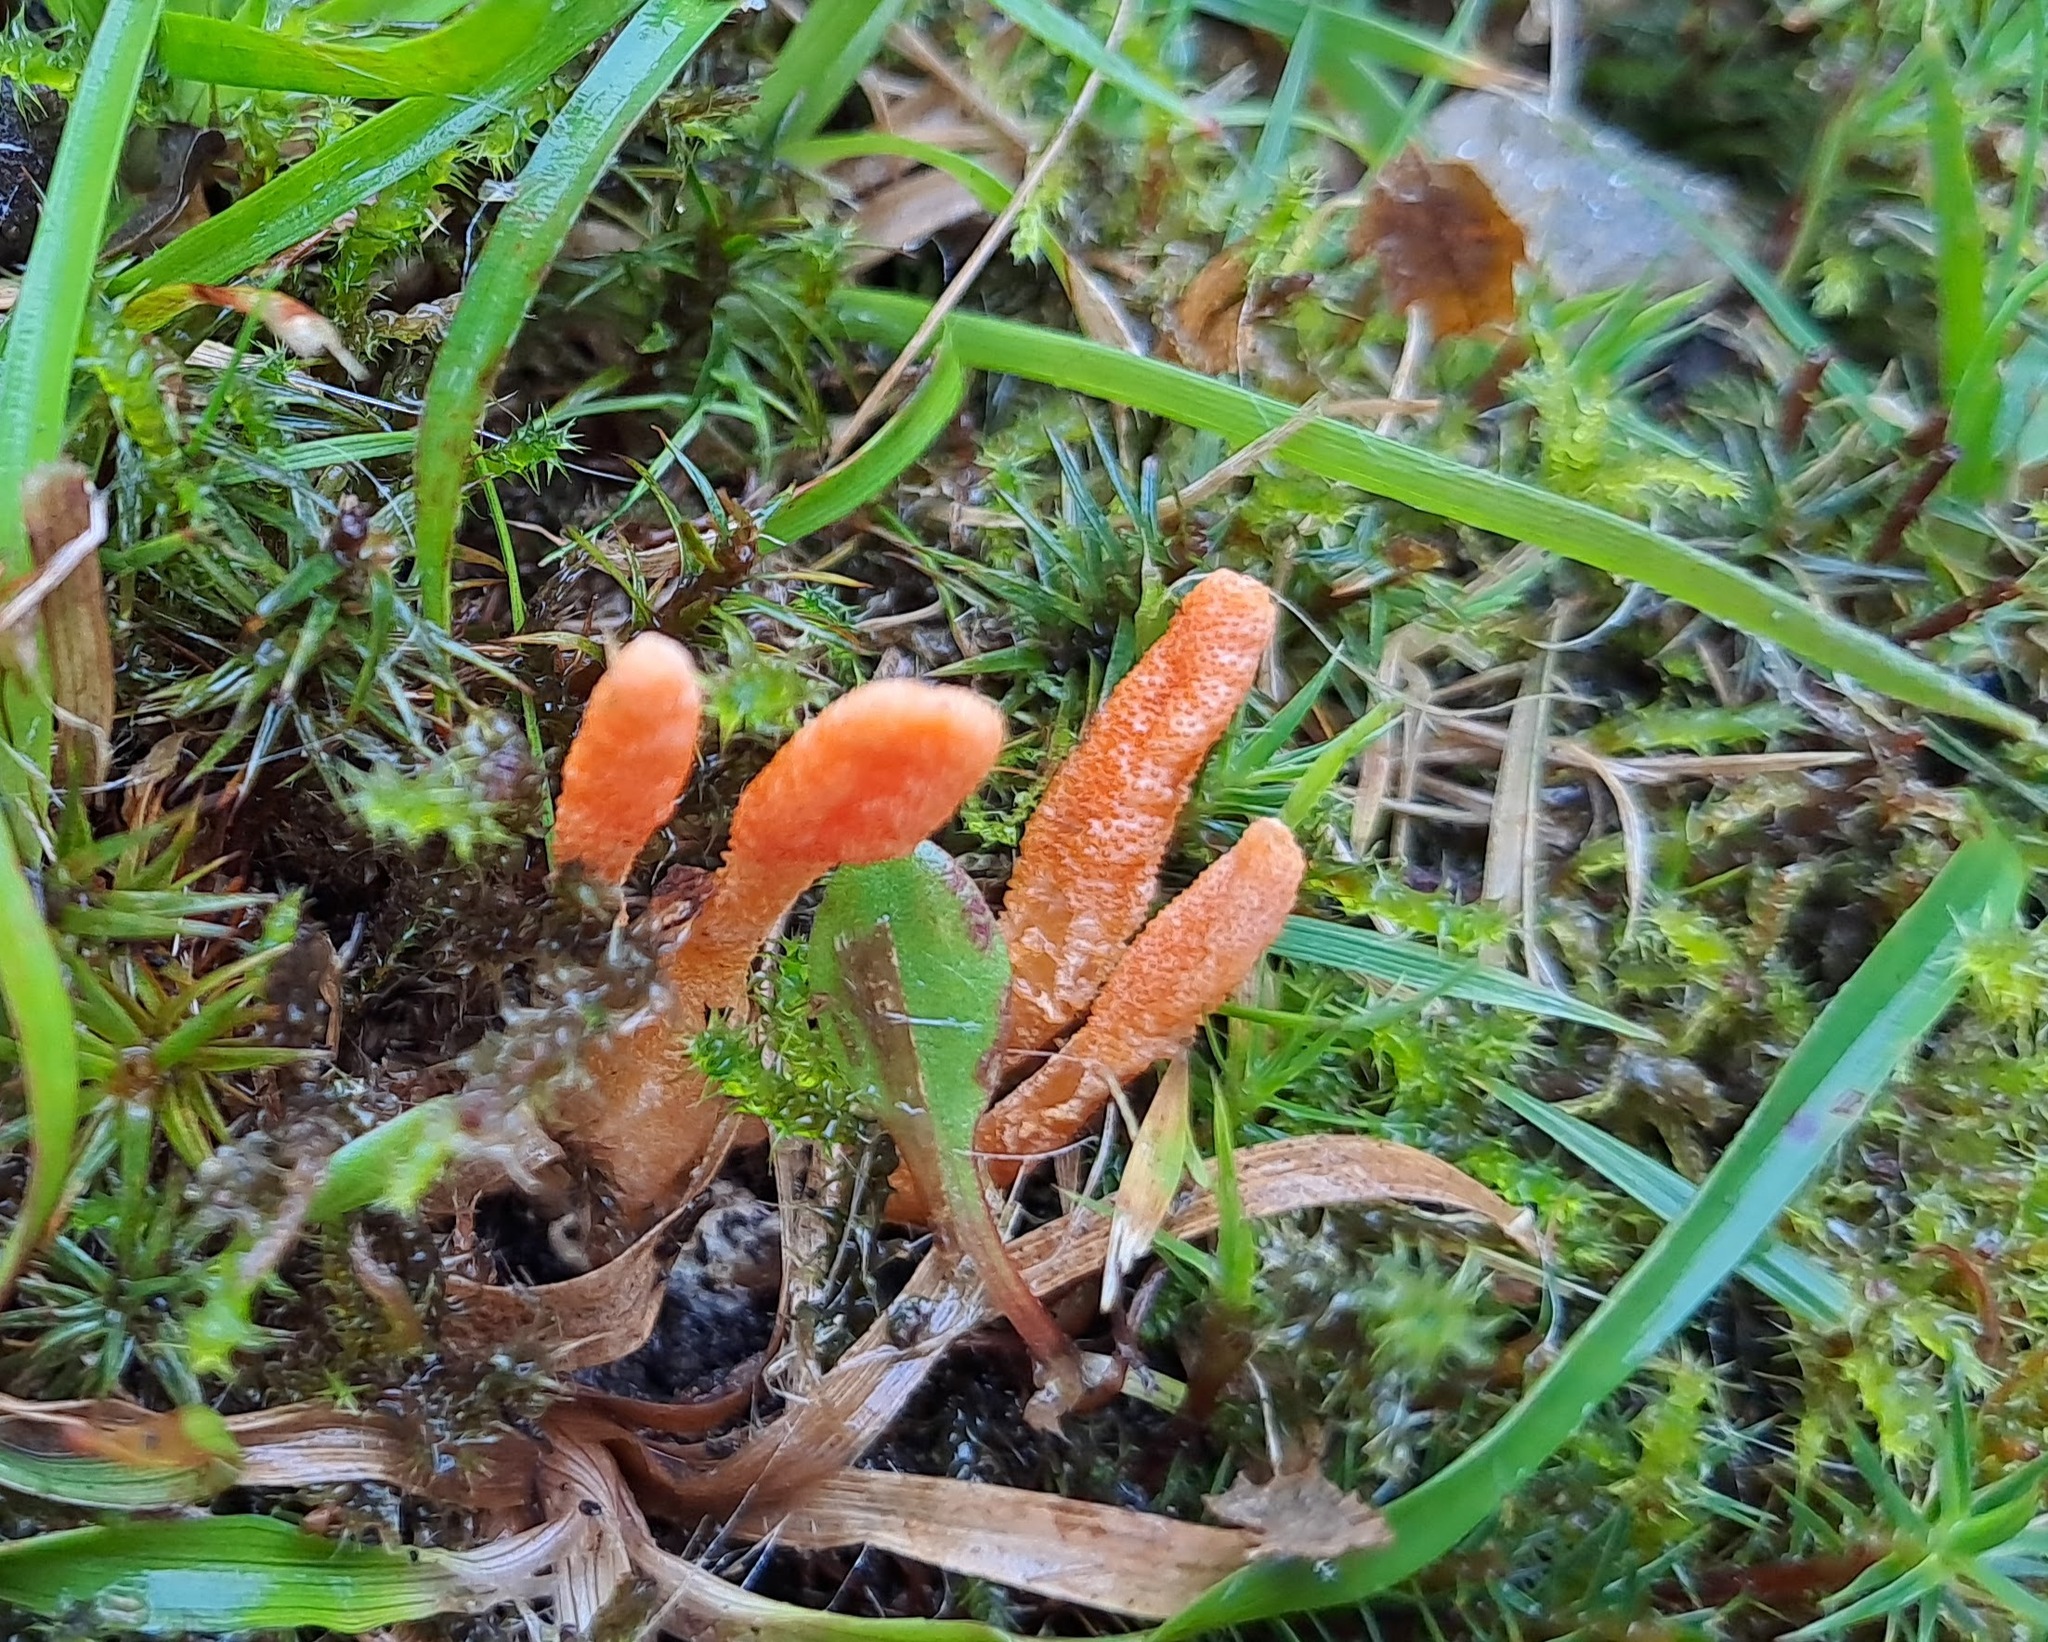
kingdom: Fungi
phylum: Ascomycota
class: Sordariomycetes
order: Hypocreales
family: Cordycipitaceae
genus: Cordyceps
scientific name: Cordyceps militaris
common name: Scarlet caterpillar fungus
